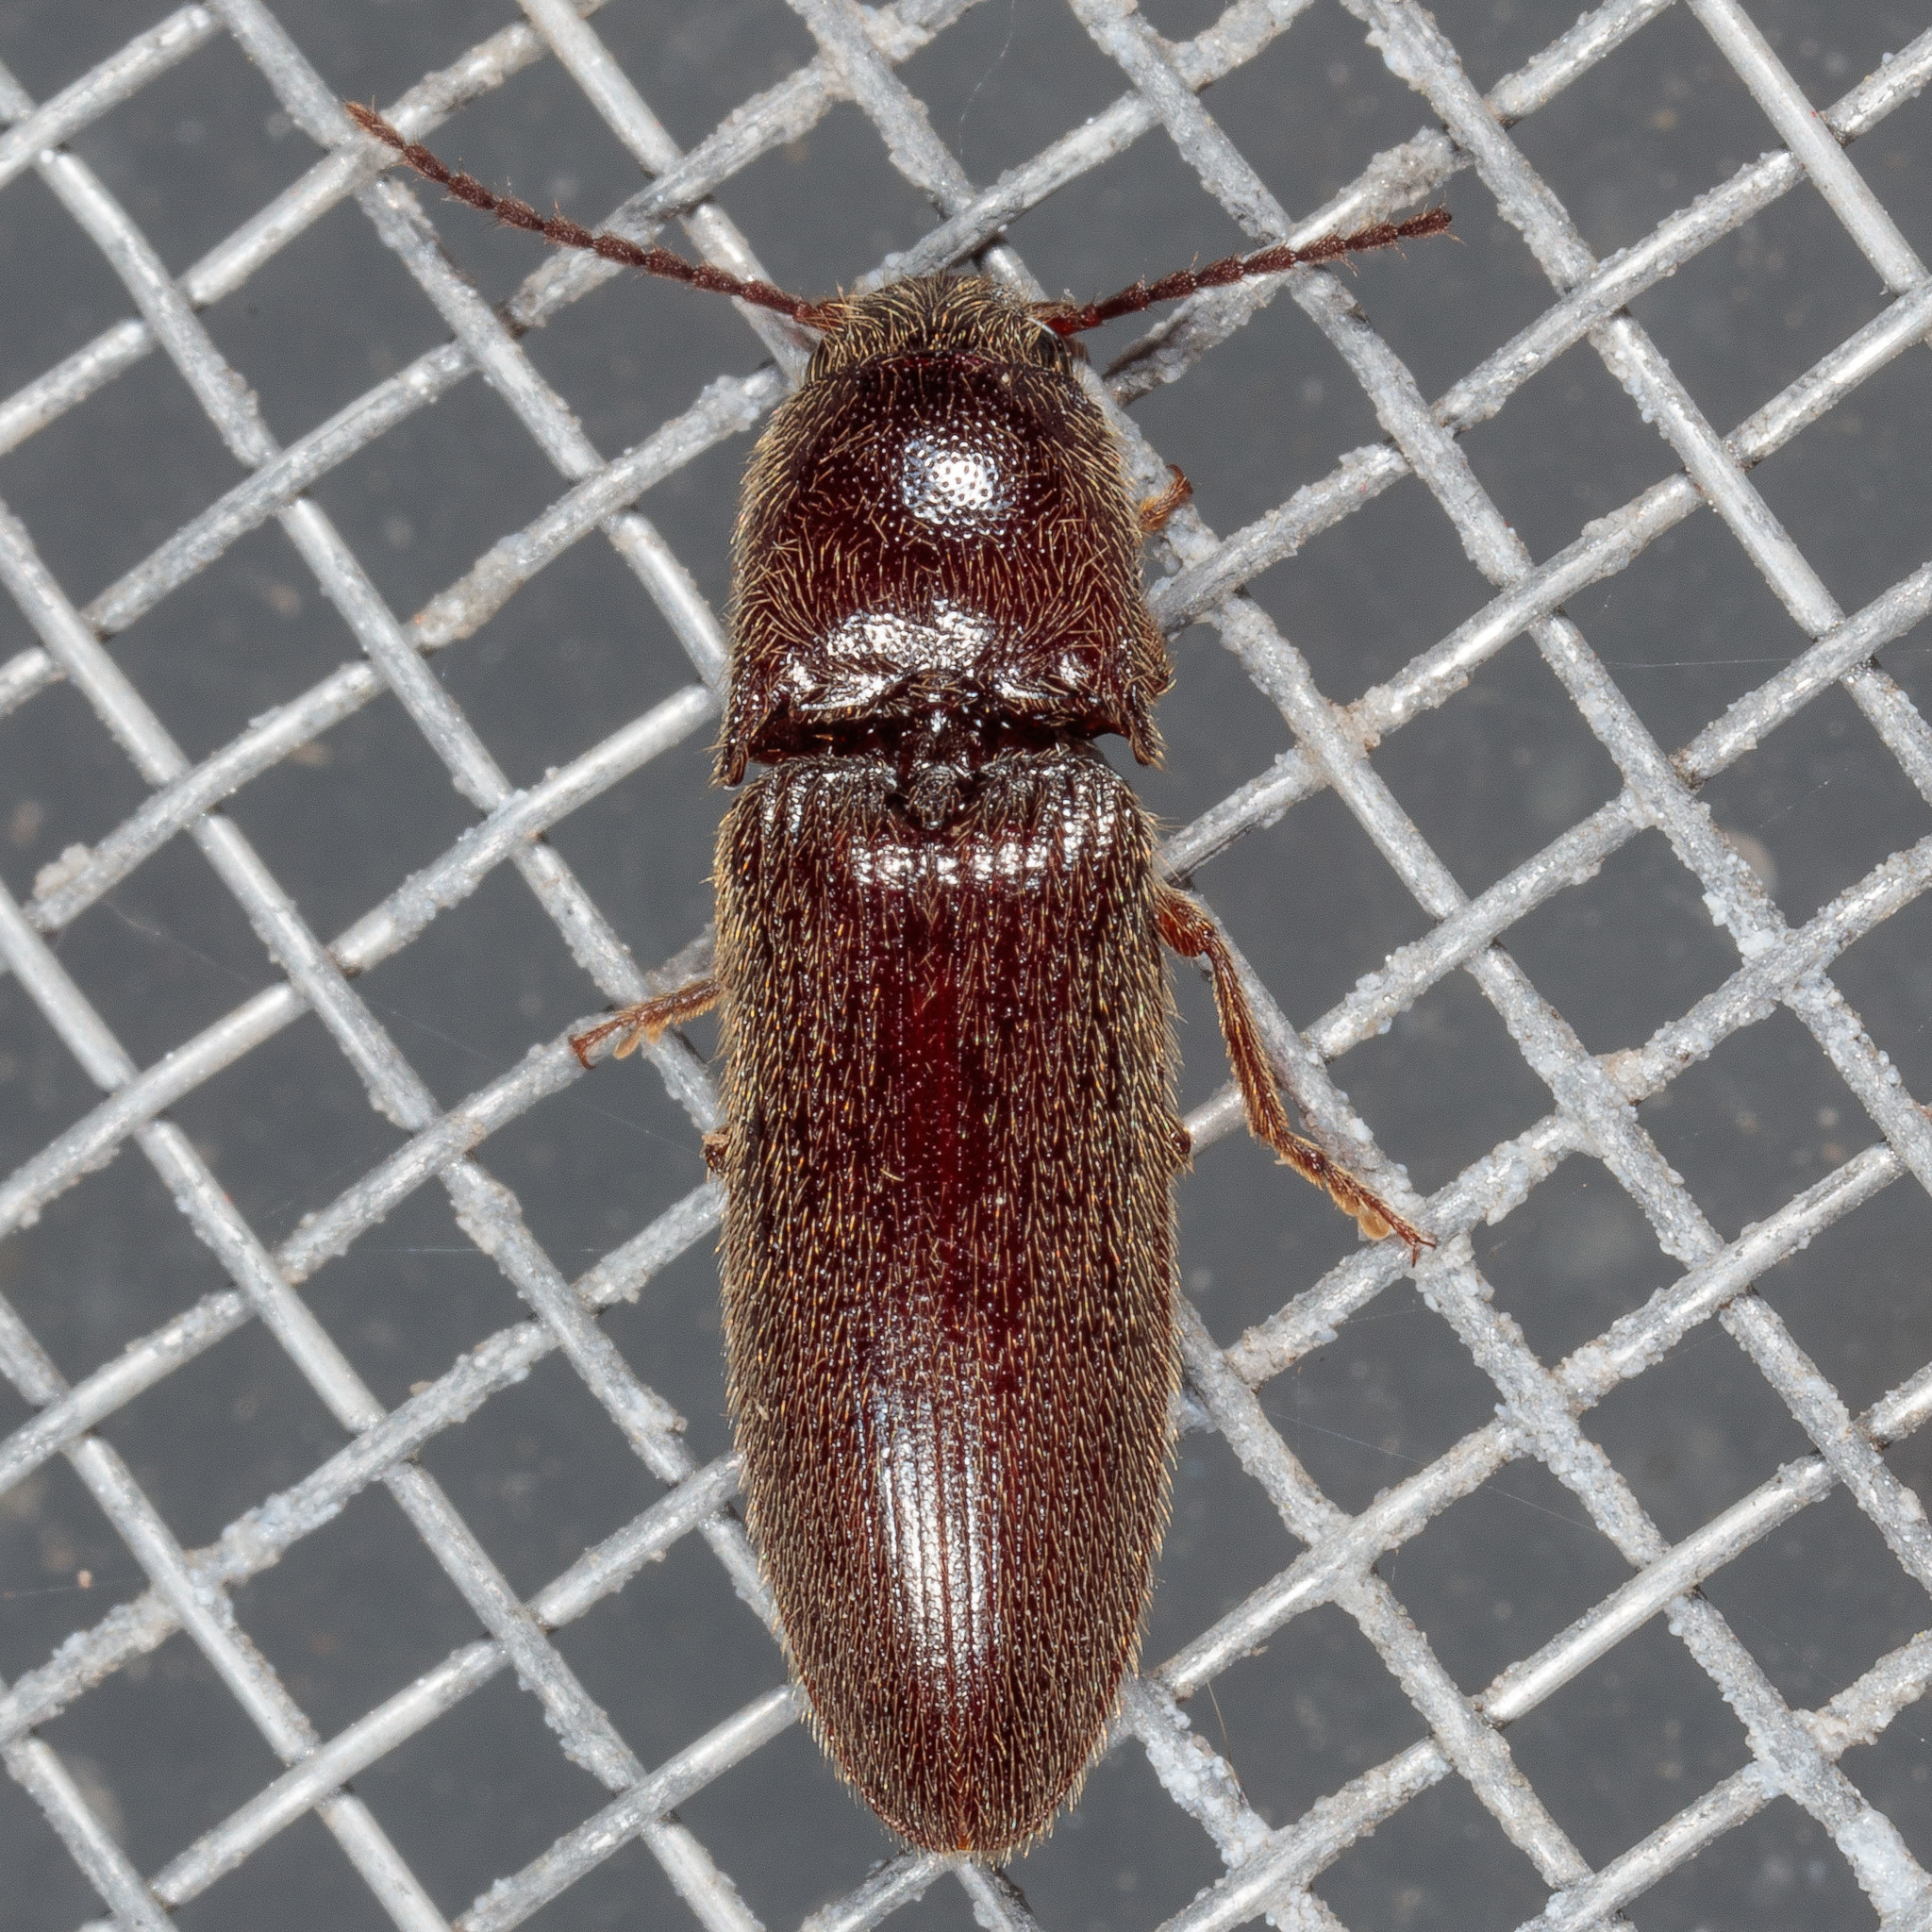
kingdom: Animalia
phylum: Arthropoda
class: Insecta
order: Coleoptera
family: Elateridae
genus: Dipropus
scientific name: Dipropus
